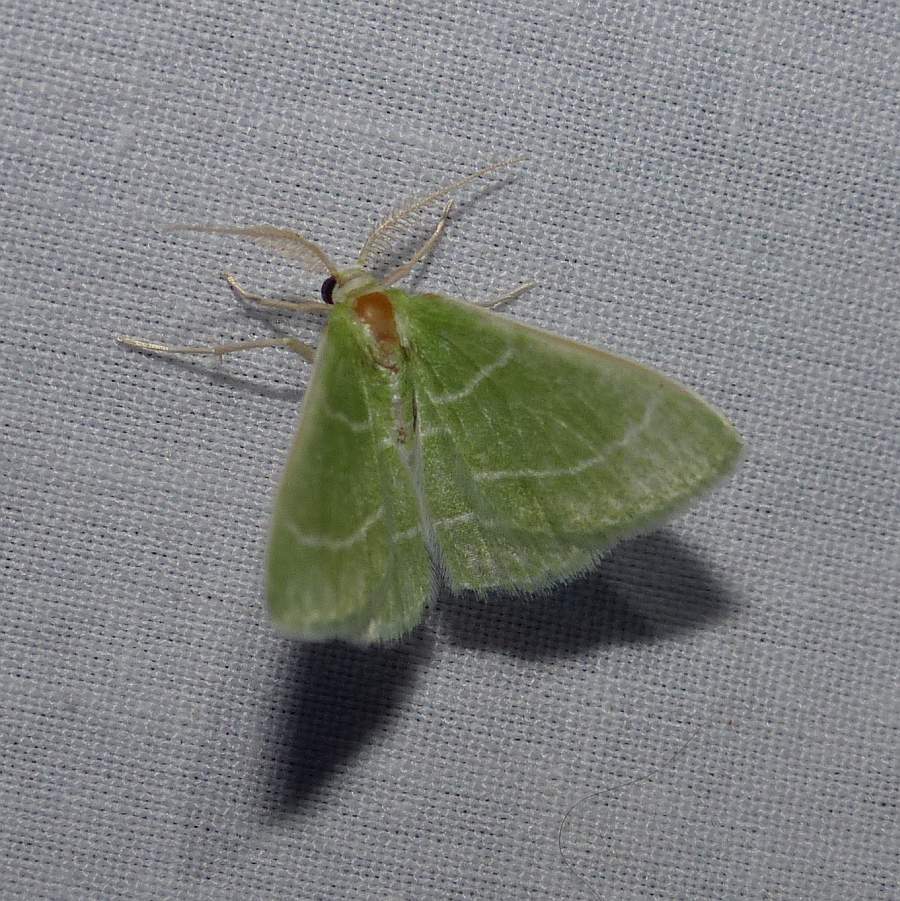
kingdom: Animalia
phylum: Arthropoda
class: Insecta
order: Lepidoptera
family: Geometridae
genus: Chlorochlamys
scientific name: Chlorochlamys chloroleucaria
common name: Blackberry looper
